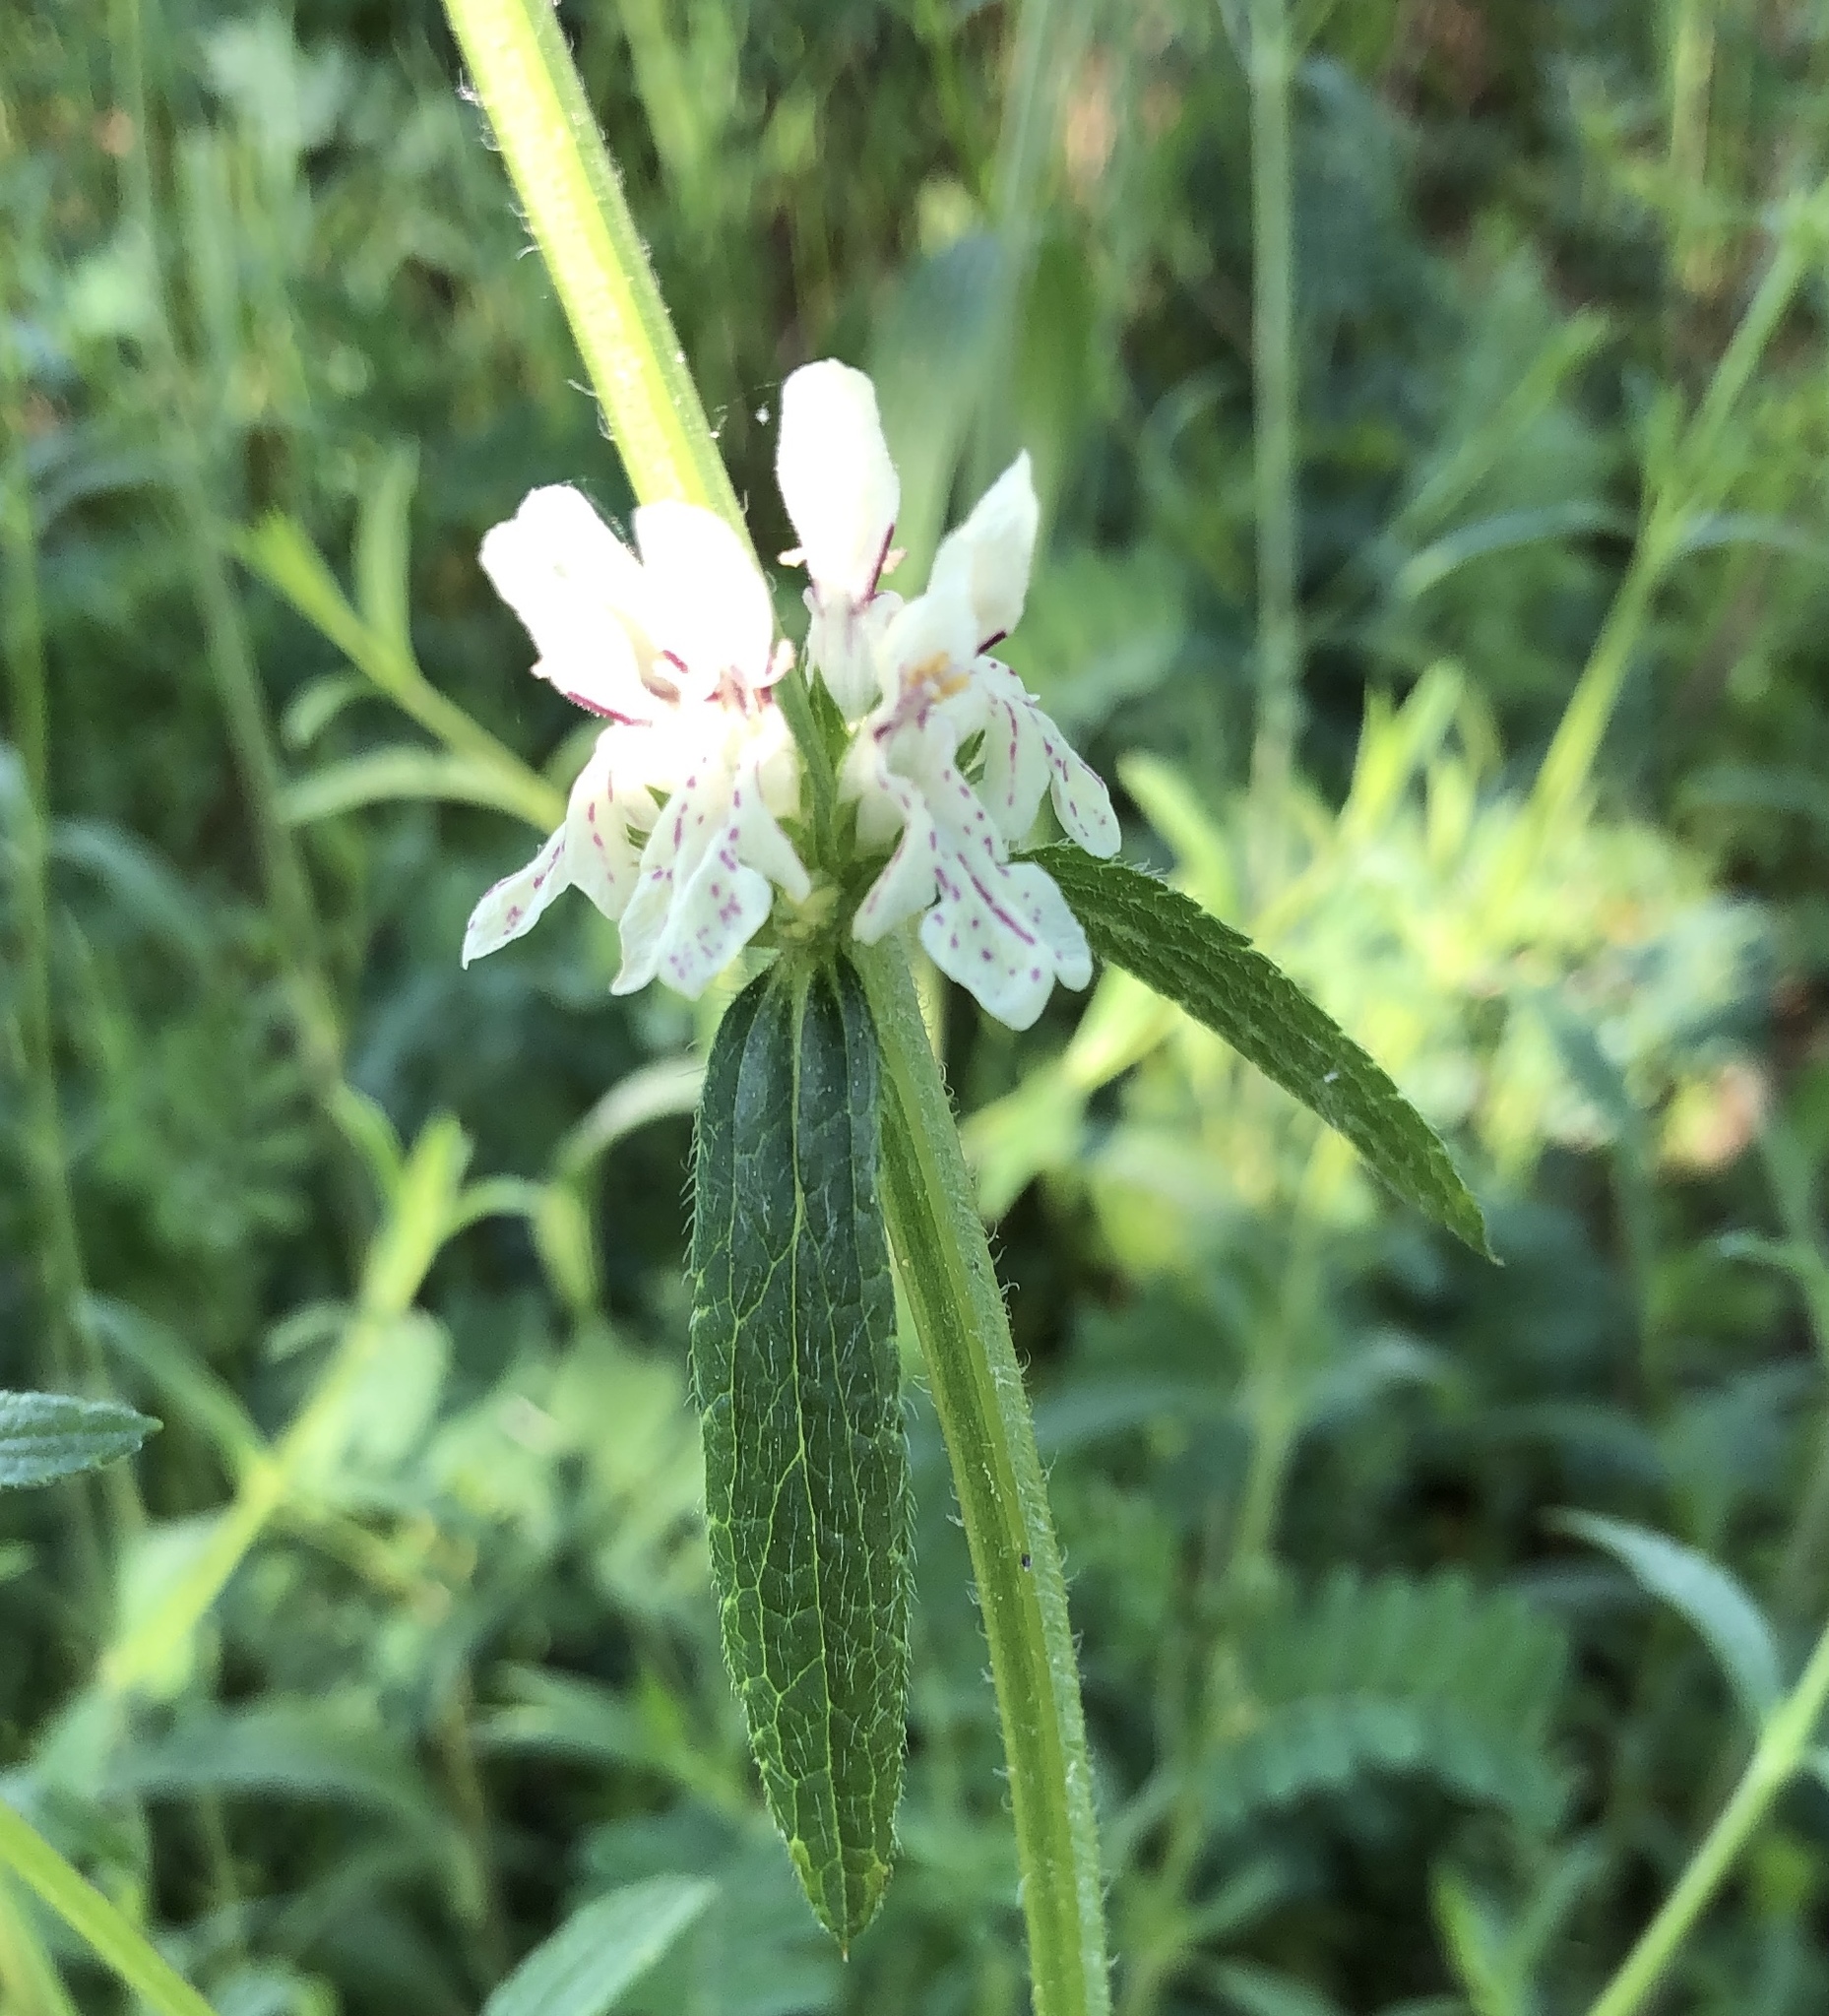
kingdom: Plantae
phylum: Tracheophyta
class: Magnoliopsida
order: Lamiales
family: Lamiaceae
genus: Stachys
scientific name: Stachys recta
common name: Perennial yellow-woundwort
